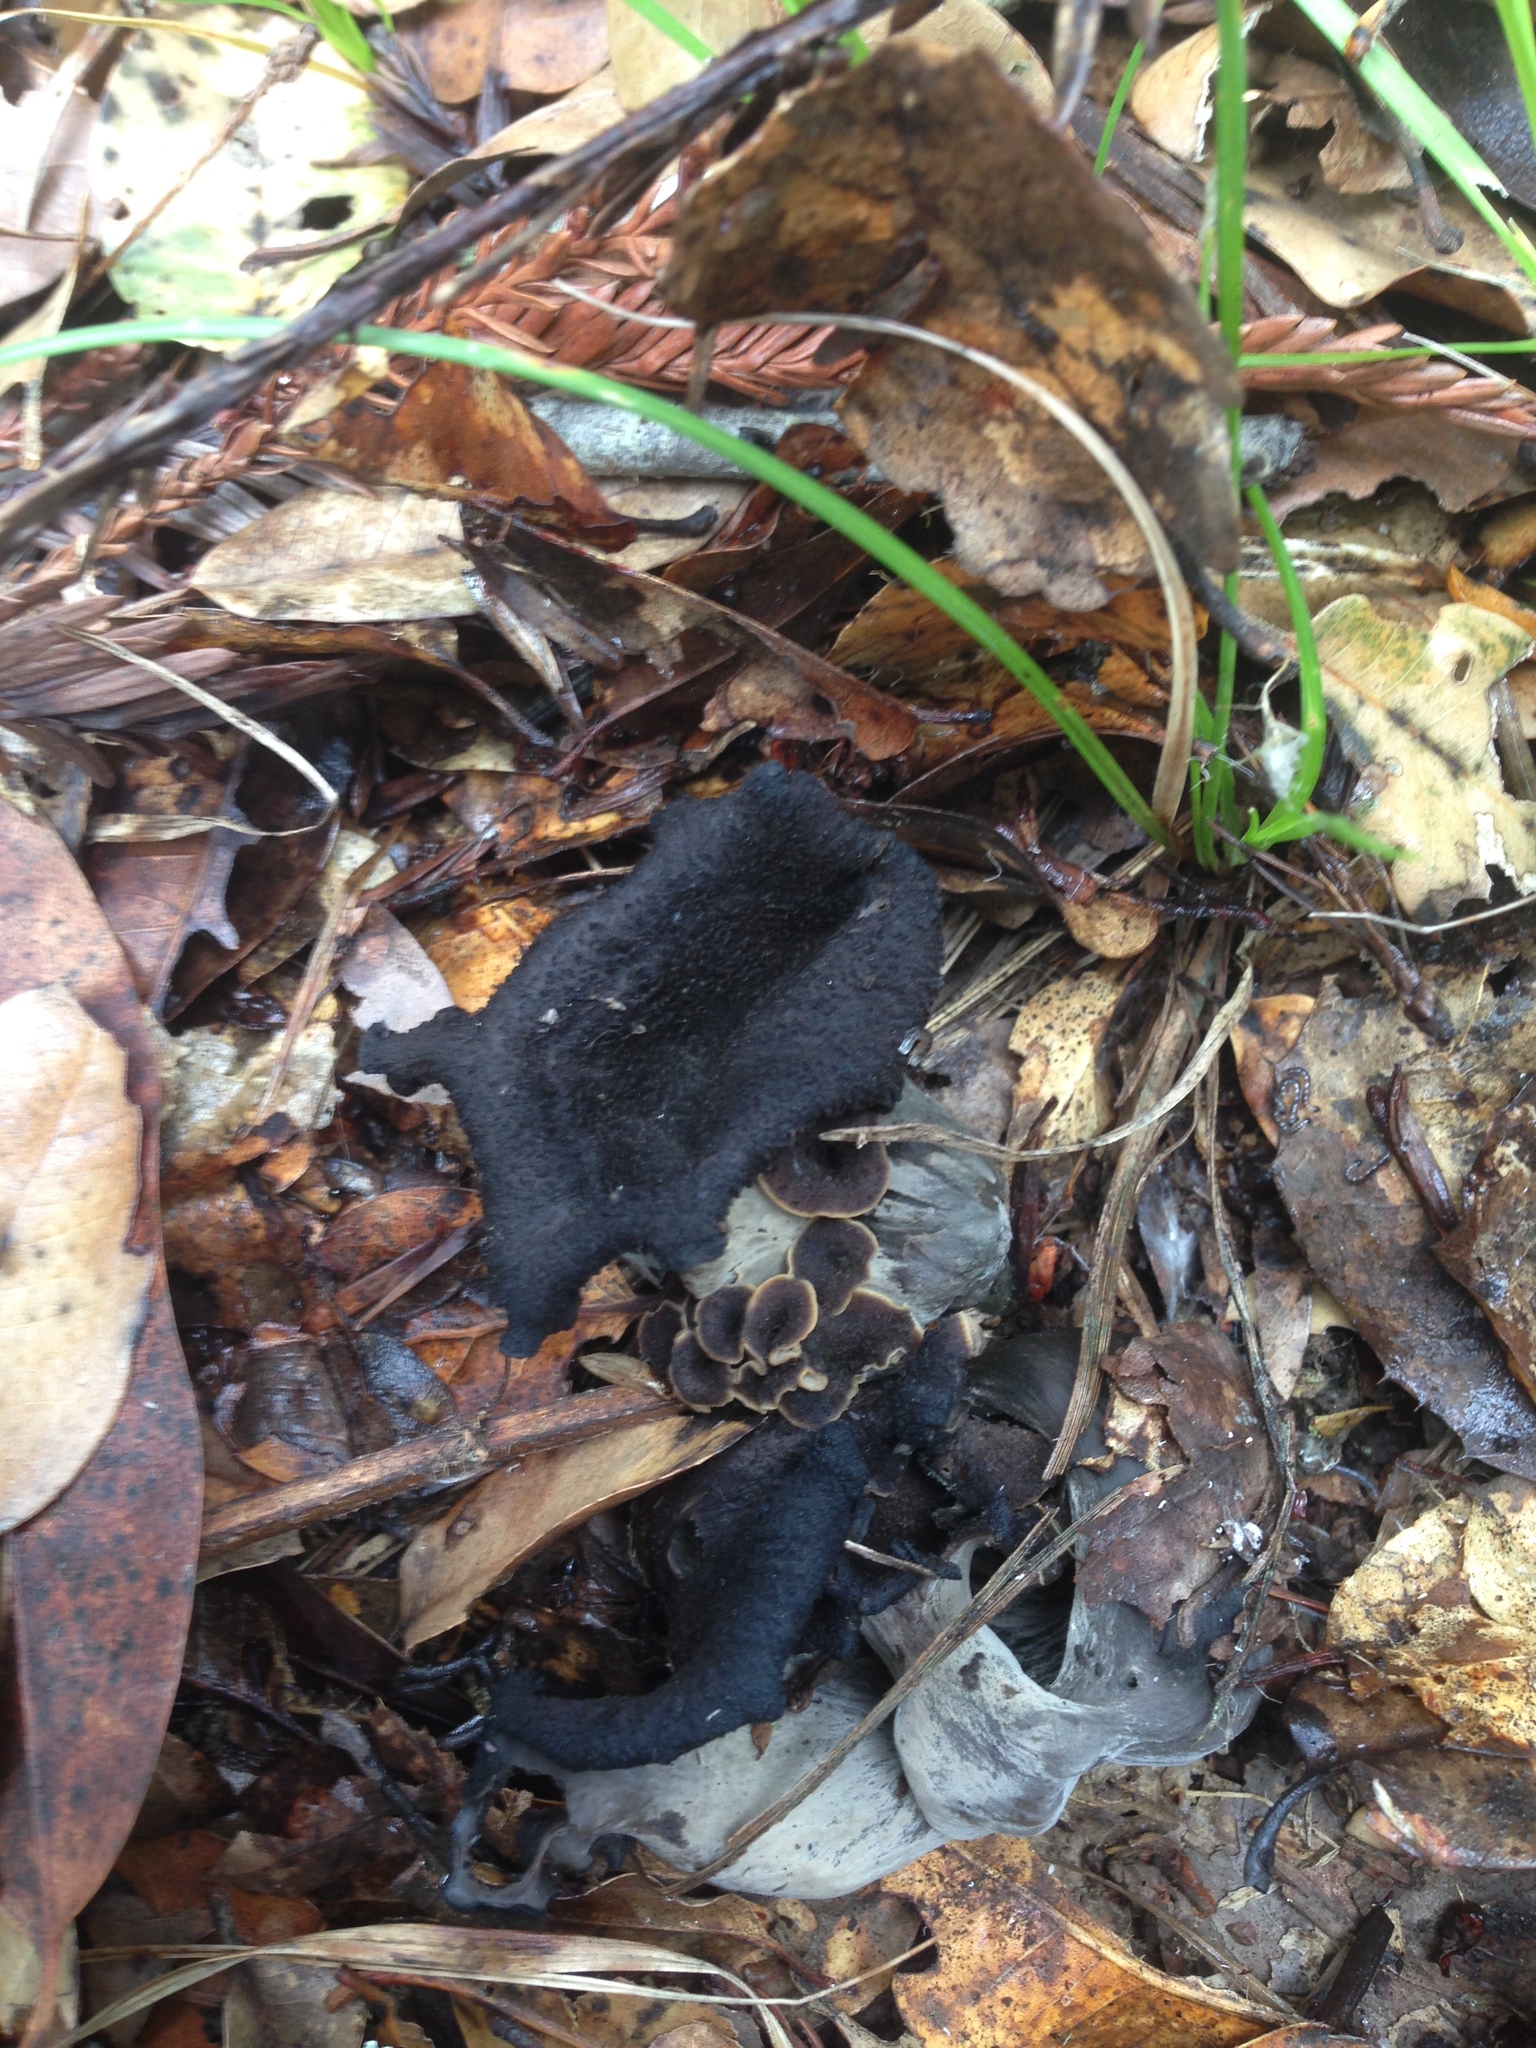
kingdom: Fungi
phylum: Basidiomycota
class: Agaricomycetes
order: Cantharellales
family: Hydnaceae
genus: Craterellus
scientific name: Craterellus calicornucopioides
